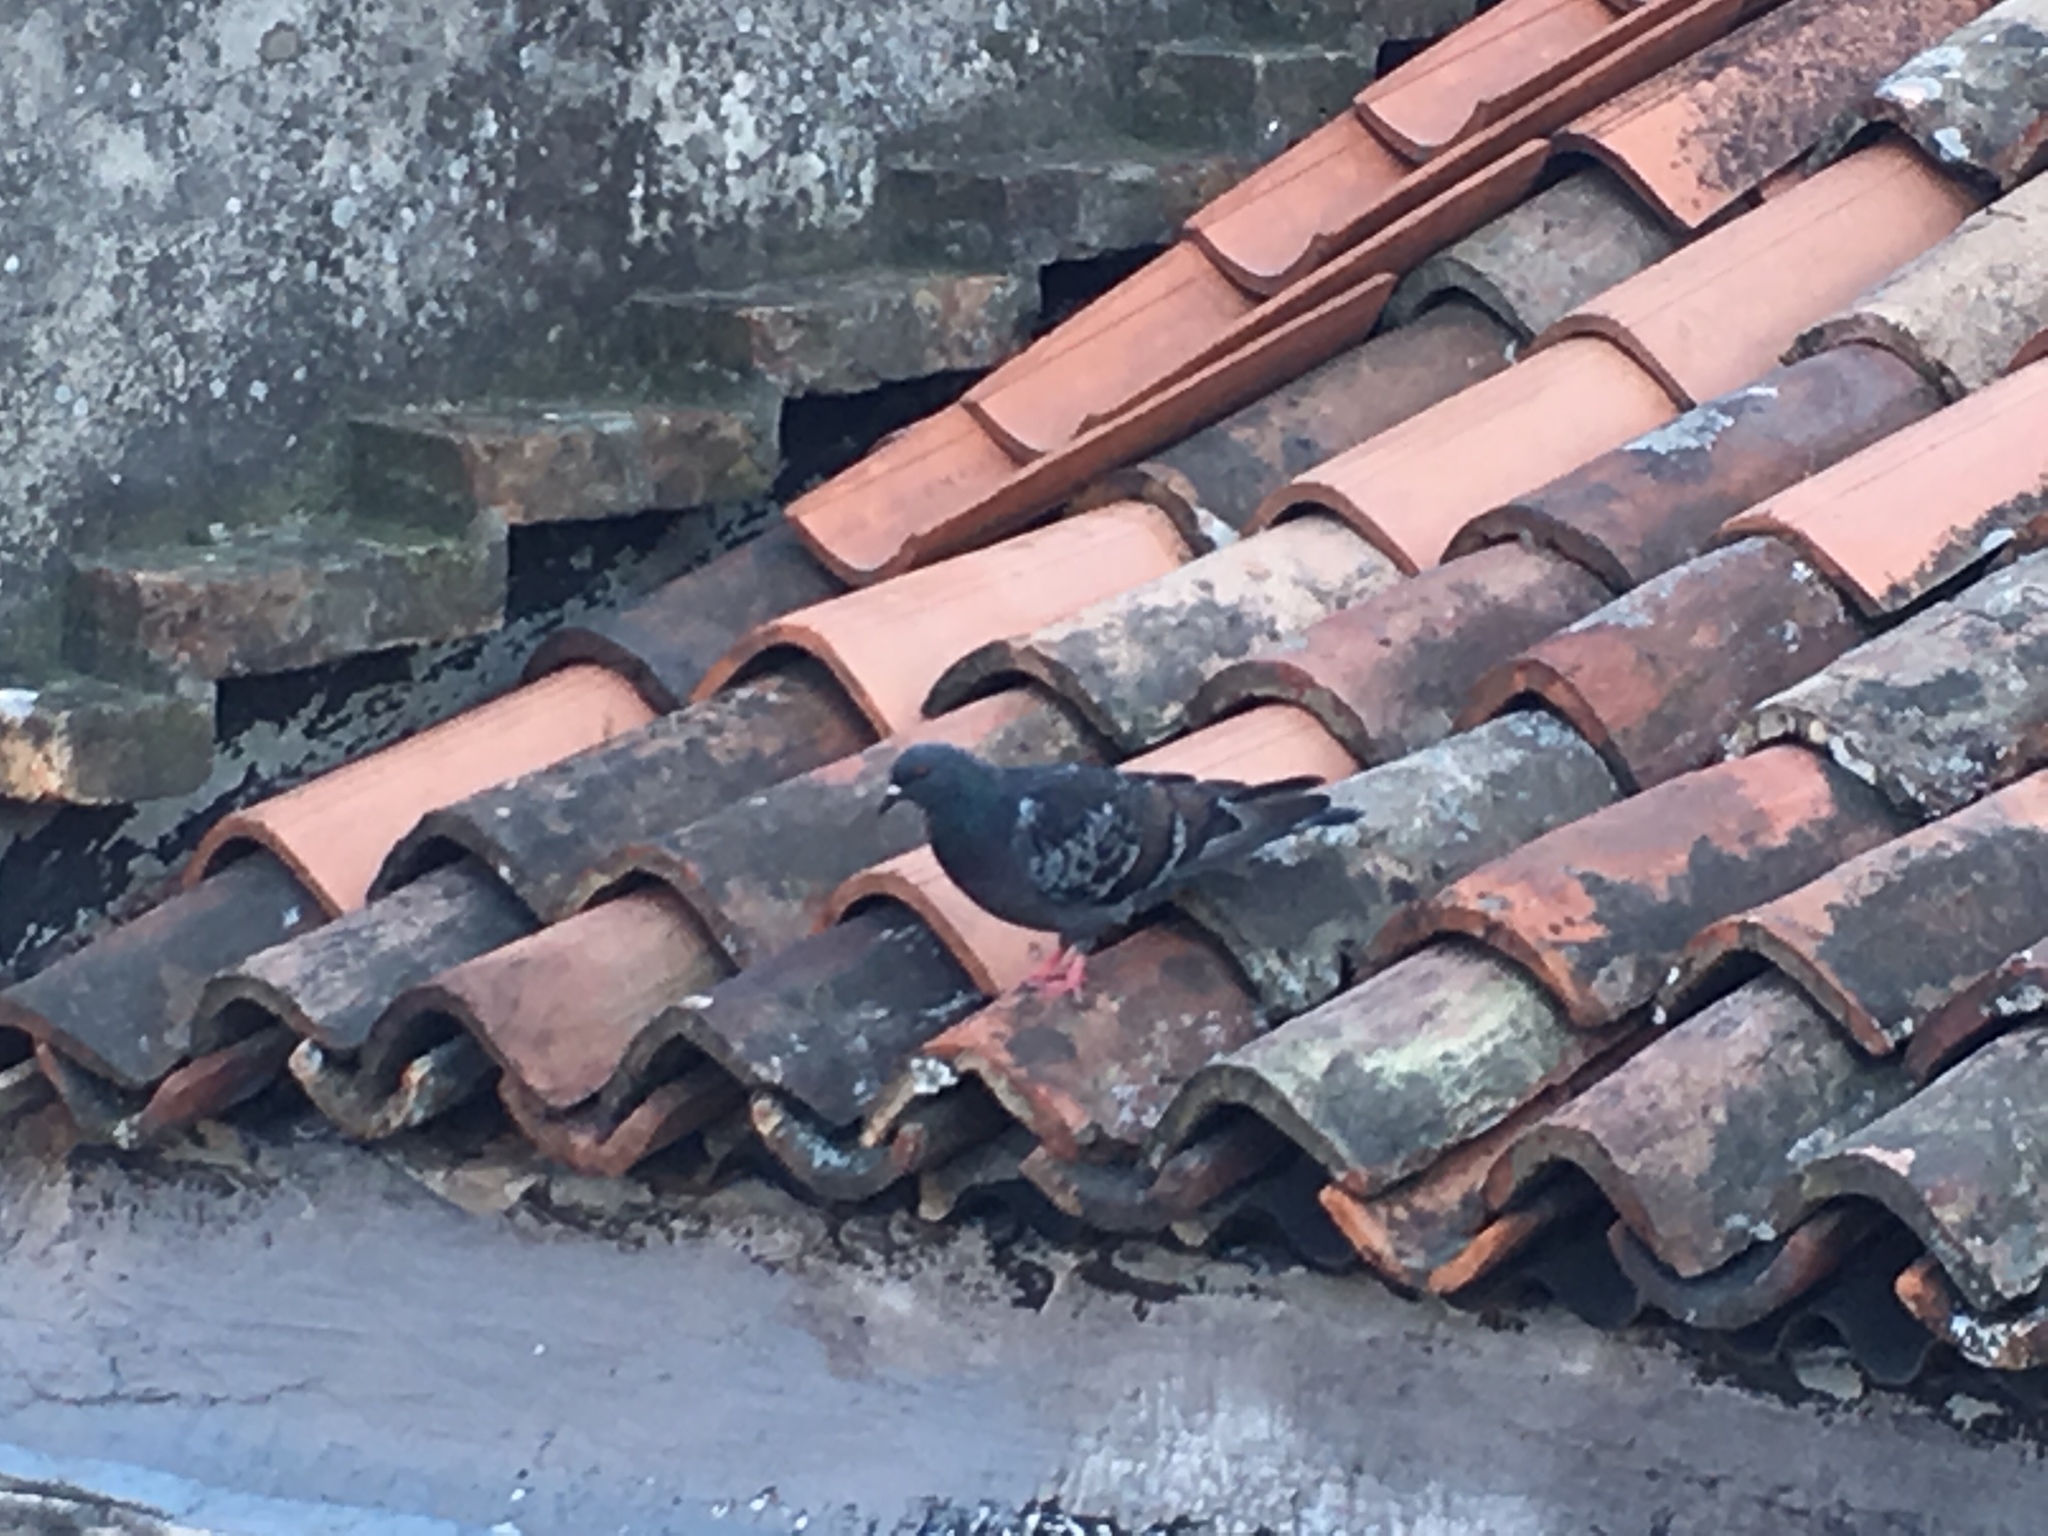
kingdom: Animalia
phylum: Chordata
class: Aves
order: Columbiformes
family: Columbidae
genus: Columba
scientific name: Columba livia
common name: Rock pigeon
